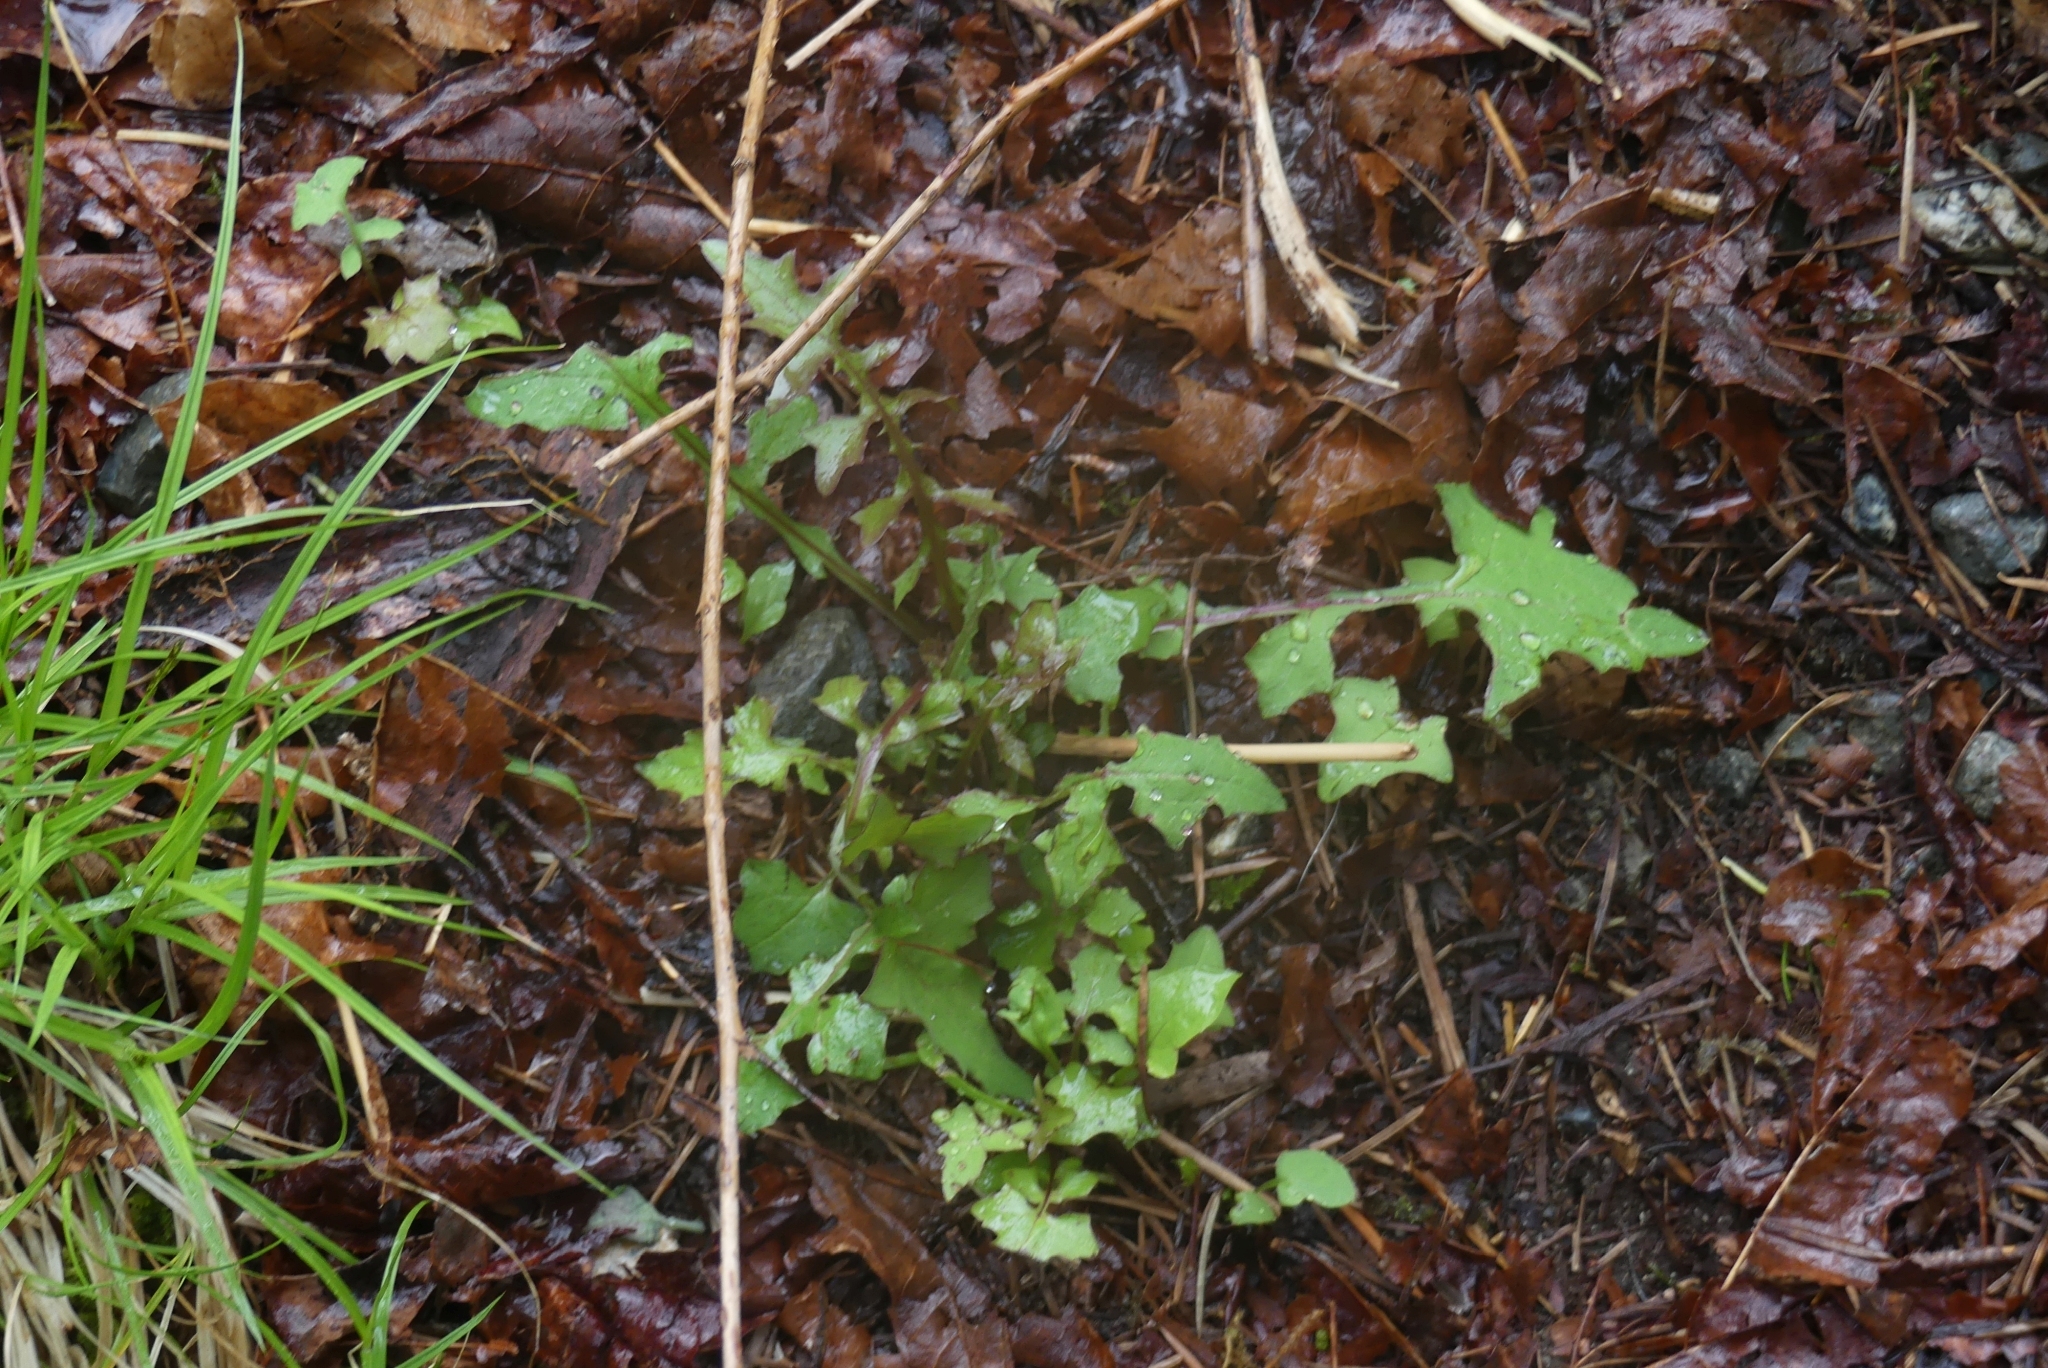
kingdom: Plantae
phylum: Tracheophyta
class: Magnoliopsida
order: Asterales
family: Asteraceae
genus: Mycelis
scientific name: Mycelis muralis
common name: Wall lettuce
